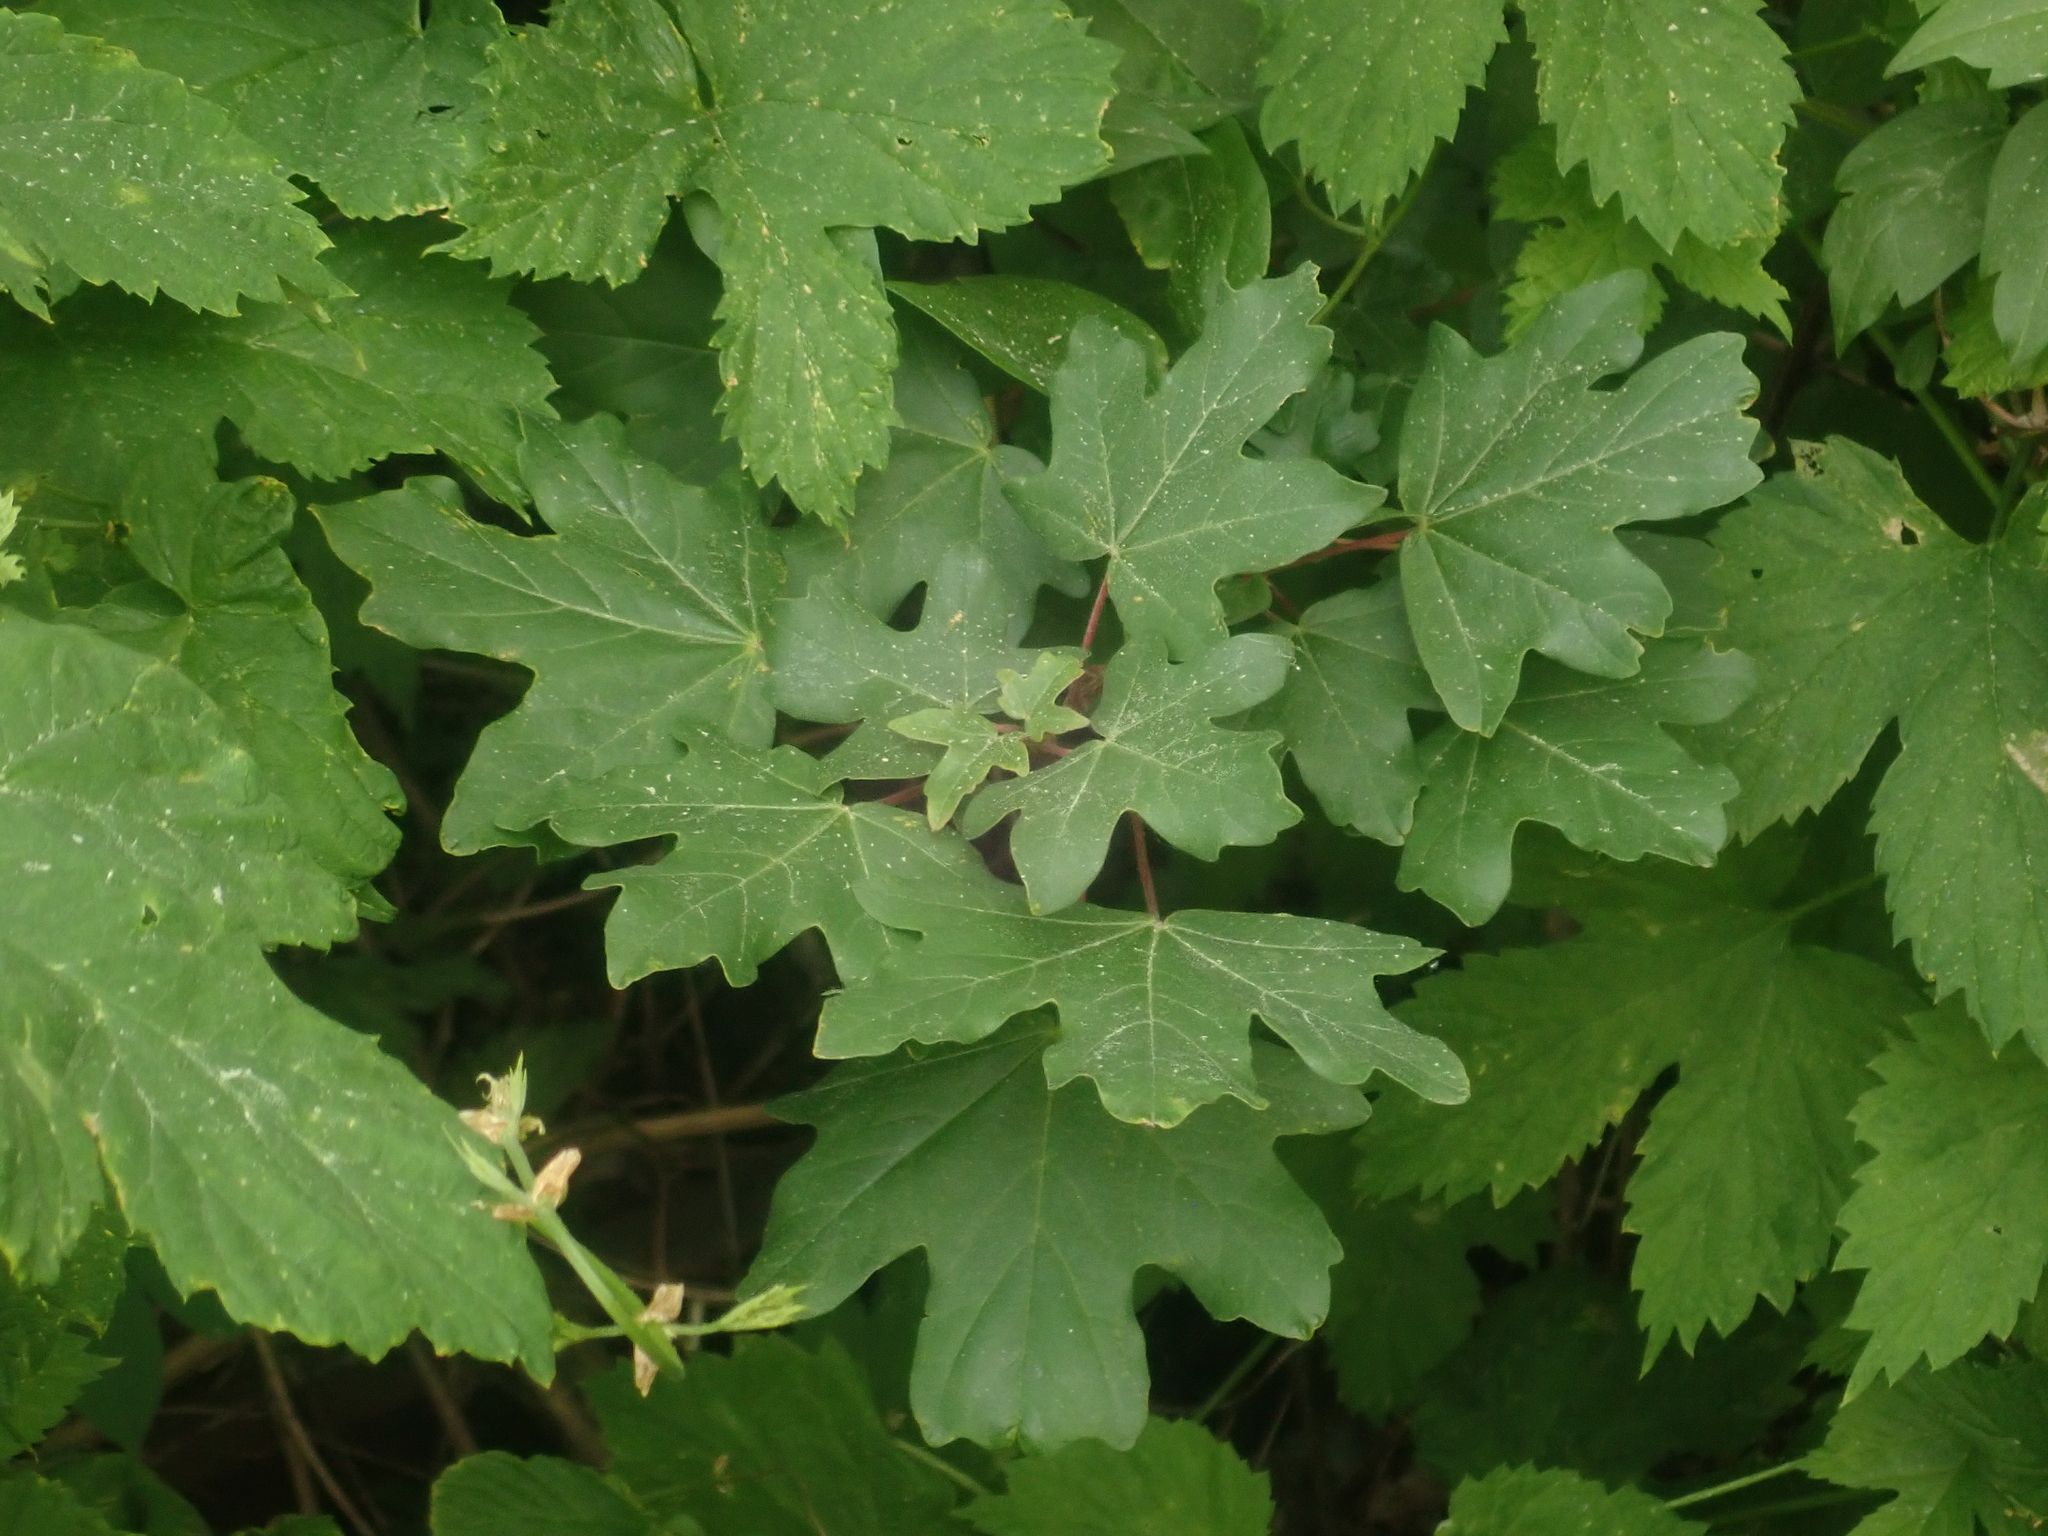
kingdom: Plantae
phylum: Tracheophyta
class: Magnoliopsida
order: Sapindales
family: Sapindaceae
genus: Acer
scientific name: Acer campestre
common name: Field maple
